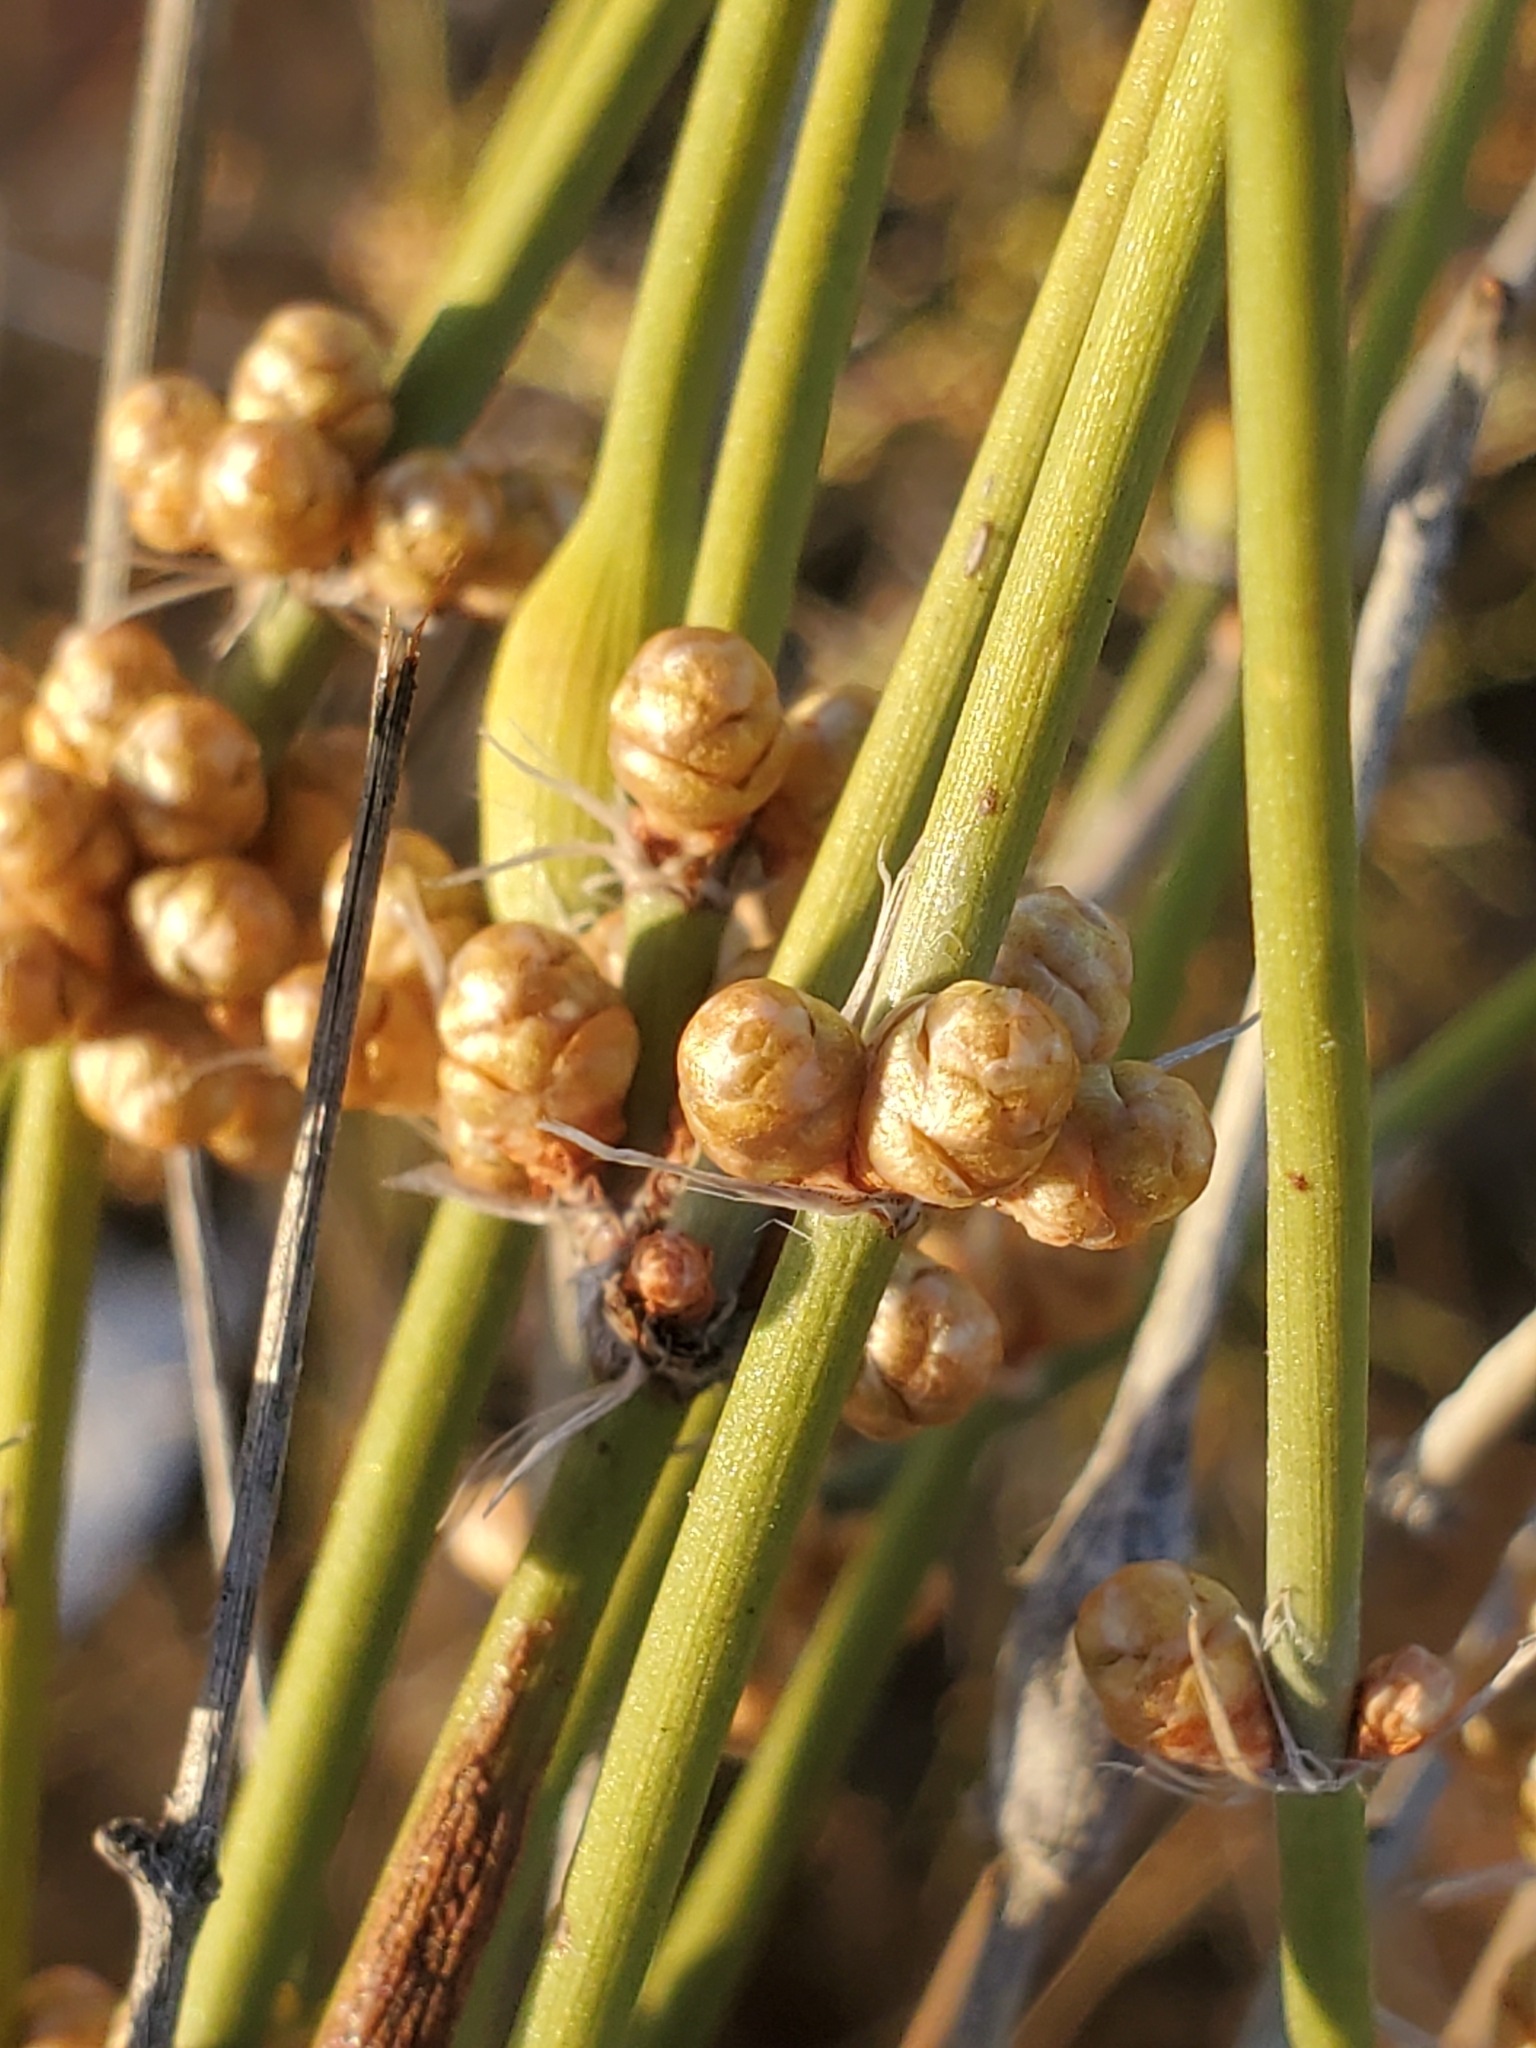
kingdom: Plantae
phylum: Tracheophyta
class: Gnetopsida
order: Ephedrales
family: Ephedraceae
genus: Ephedra
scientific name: Ephedra trifurca
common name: Mexican-tea
